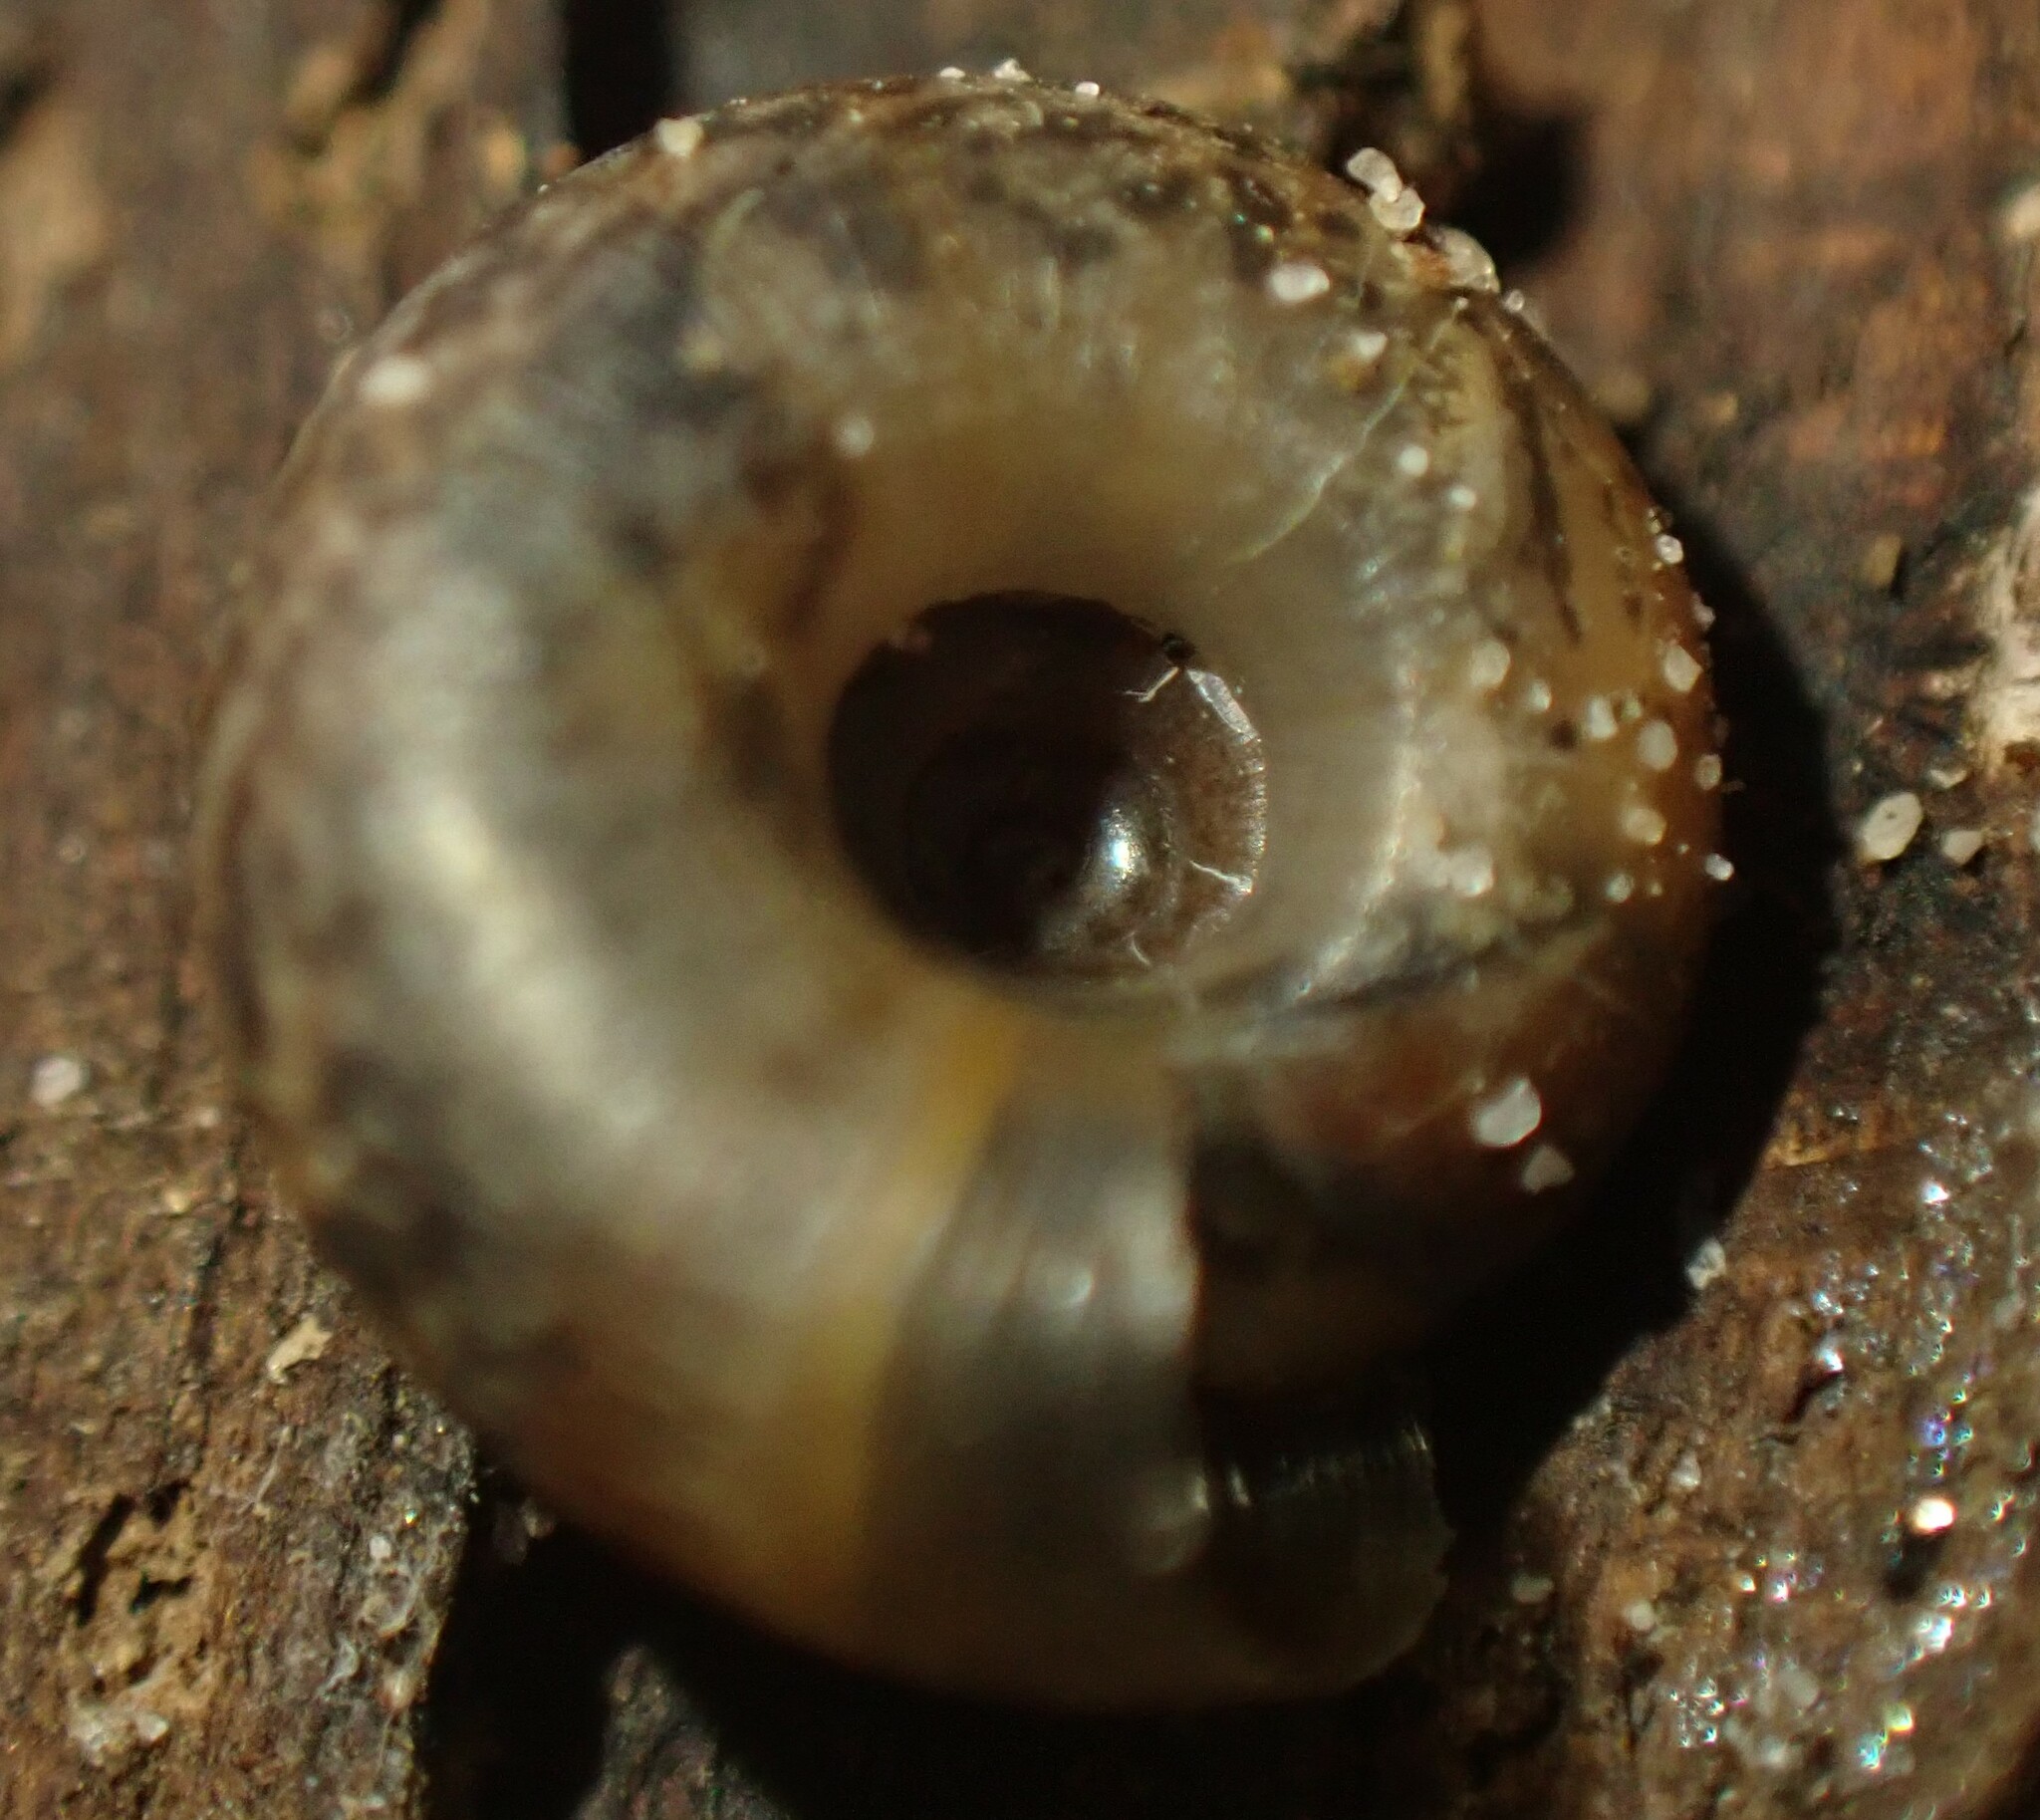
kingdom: Animalia
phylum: Mollusca
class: Gastropoda
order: Stylommatophora
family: Charopidae
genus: Thryasona
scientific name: Thryasona diemenensis
